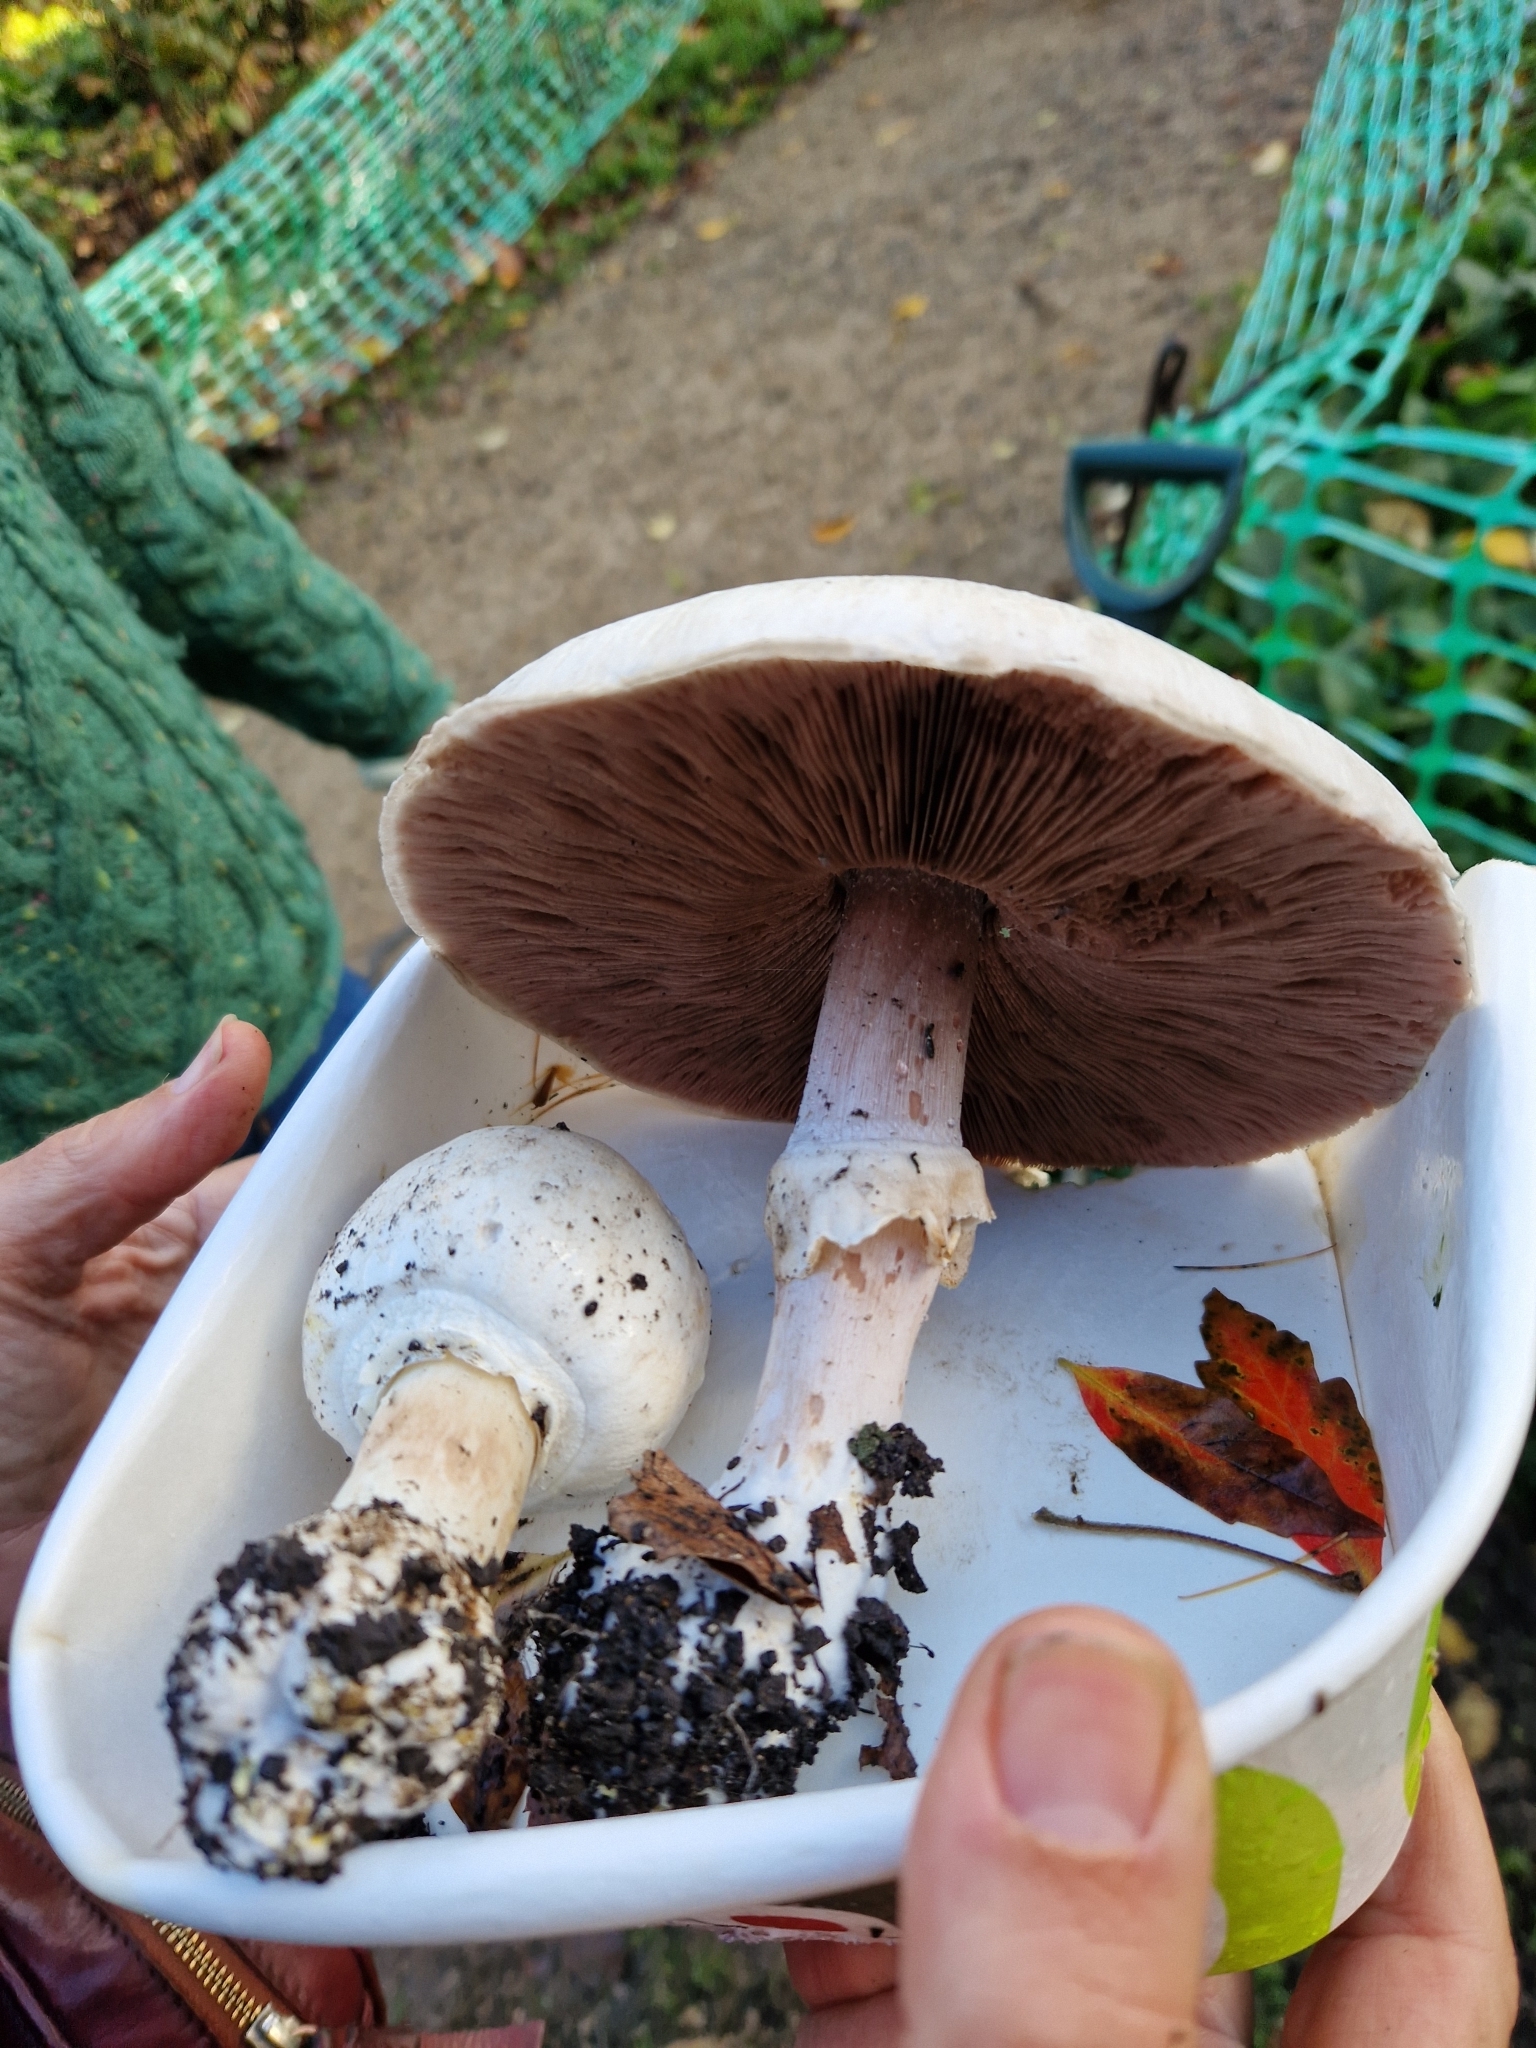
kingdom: Fungi
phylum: Basidiomycota
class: Agaricomycetes
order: Agaricales
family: Agaricaceae
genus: Agaricus
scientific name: Agaricus arvensis
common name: Horse mushroom
